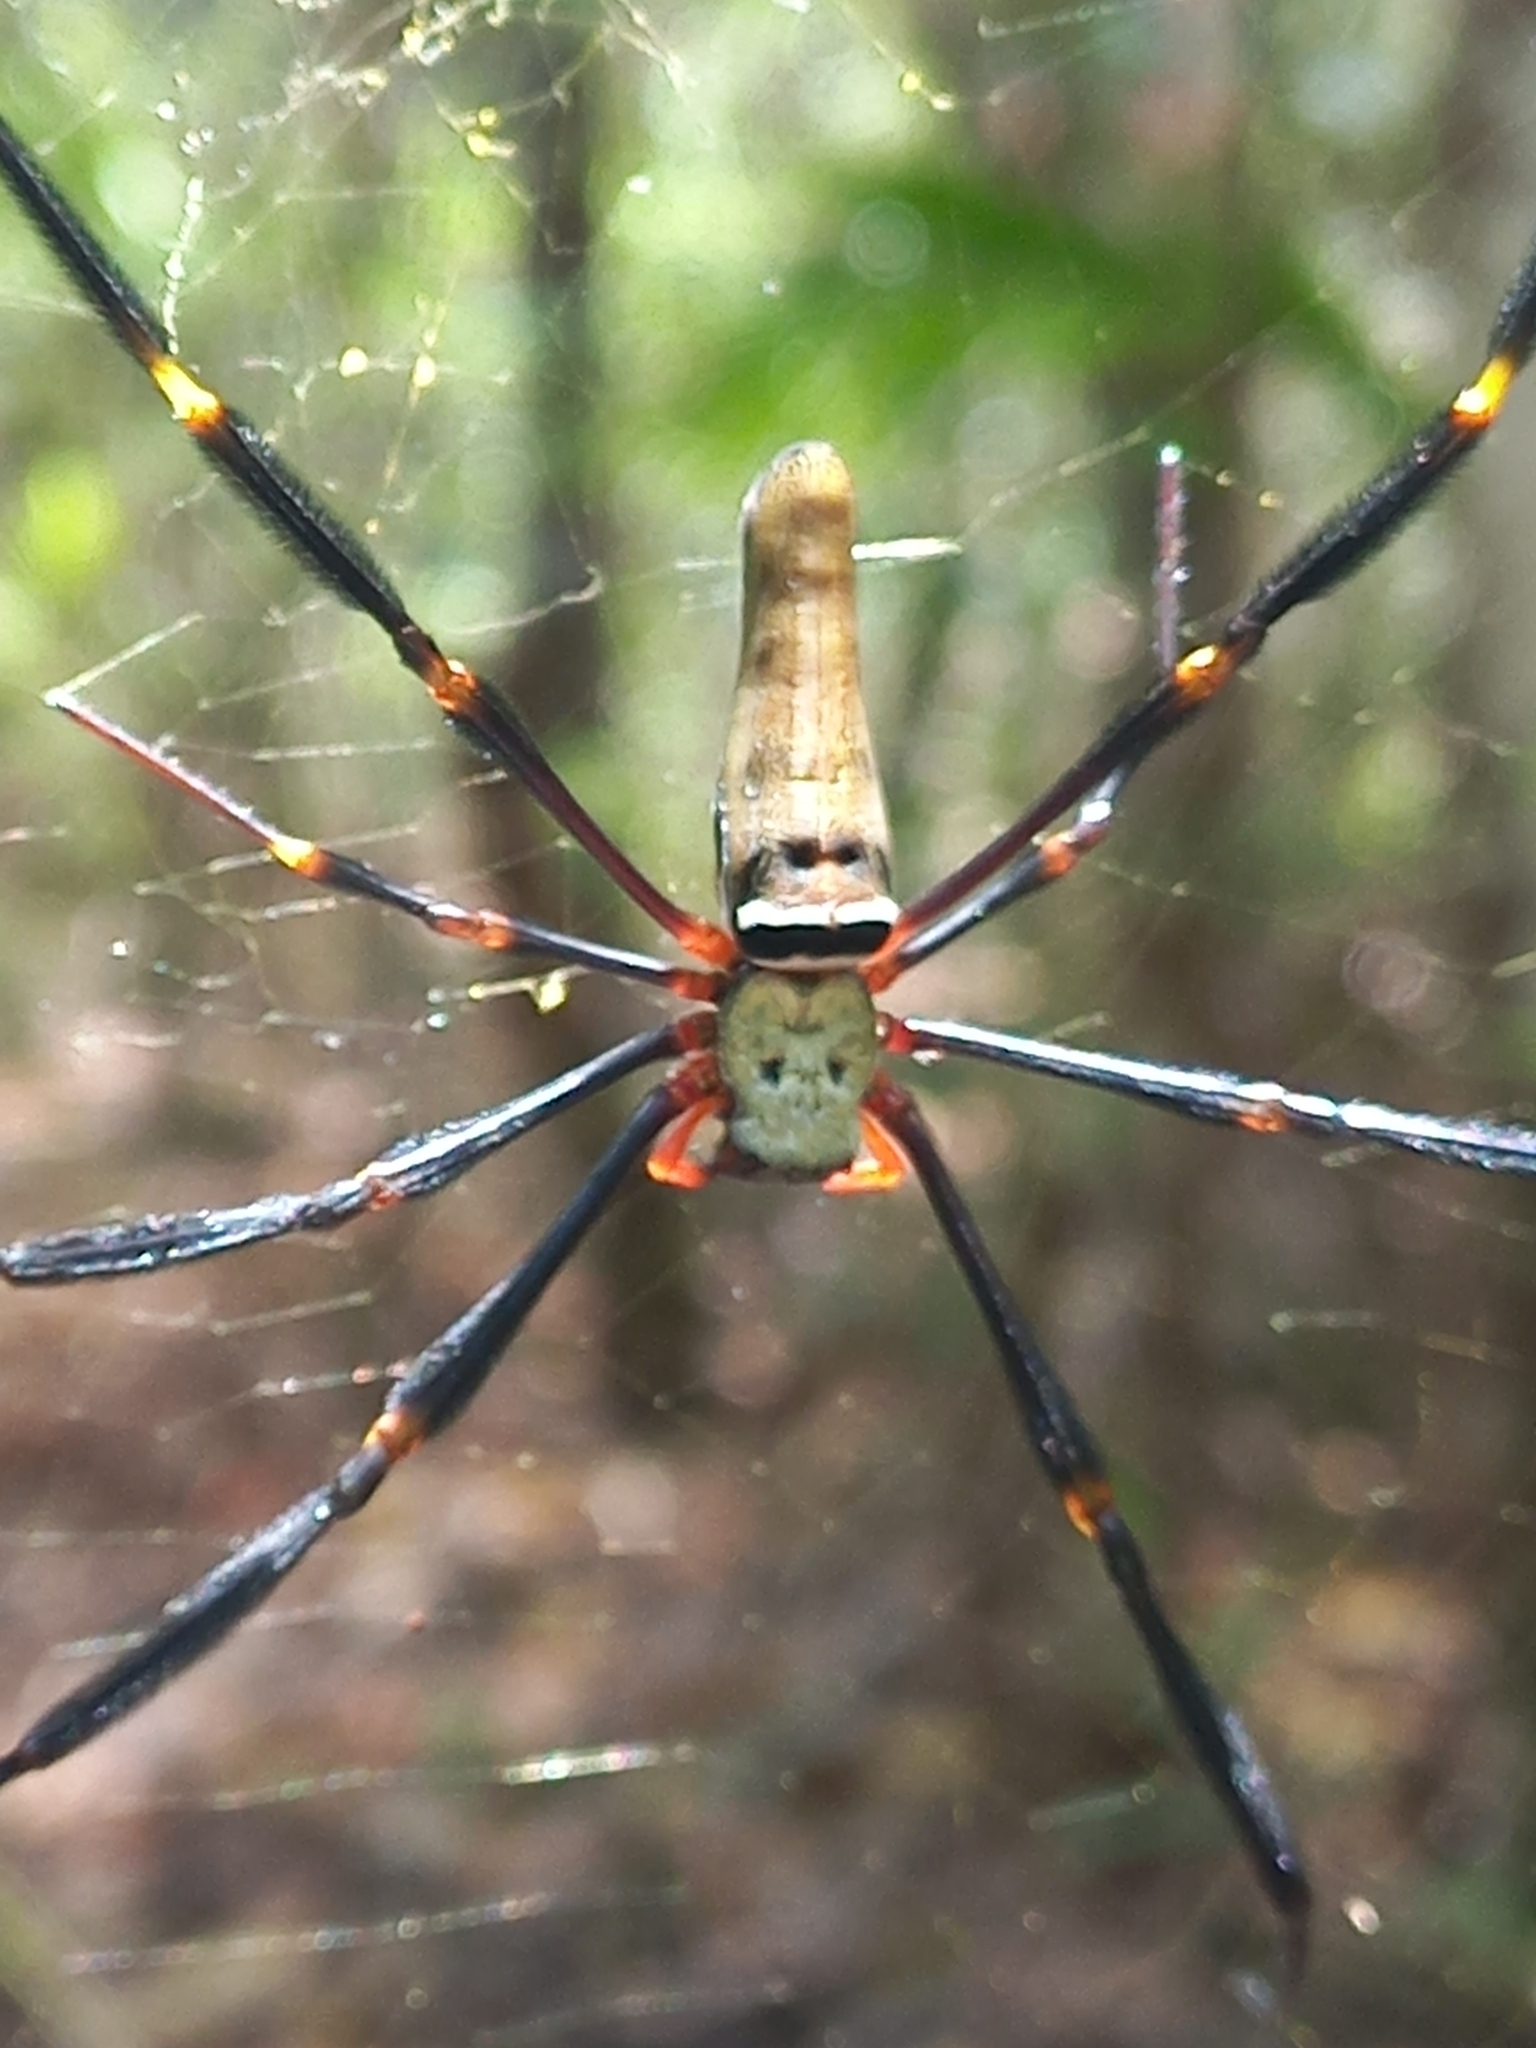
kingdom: Animalia
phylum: Arthropoda
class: Arachnida
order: Araneae
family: Araneidae
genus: Nephila
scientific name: Nephila pilipes
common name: Giant golden orb weaver
